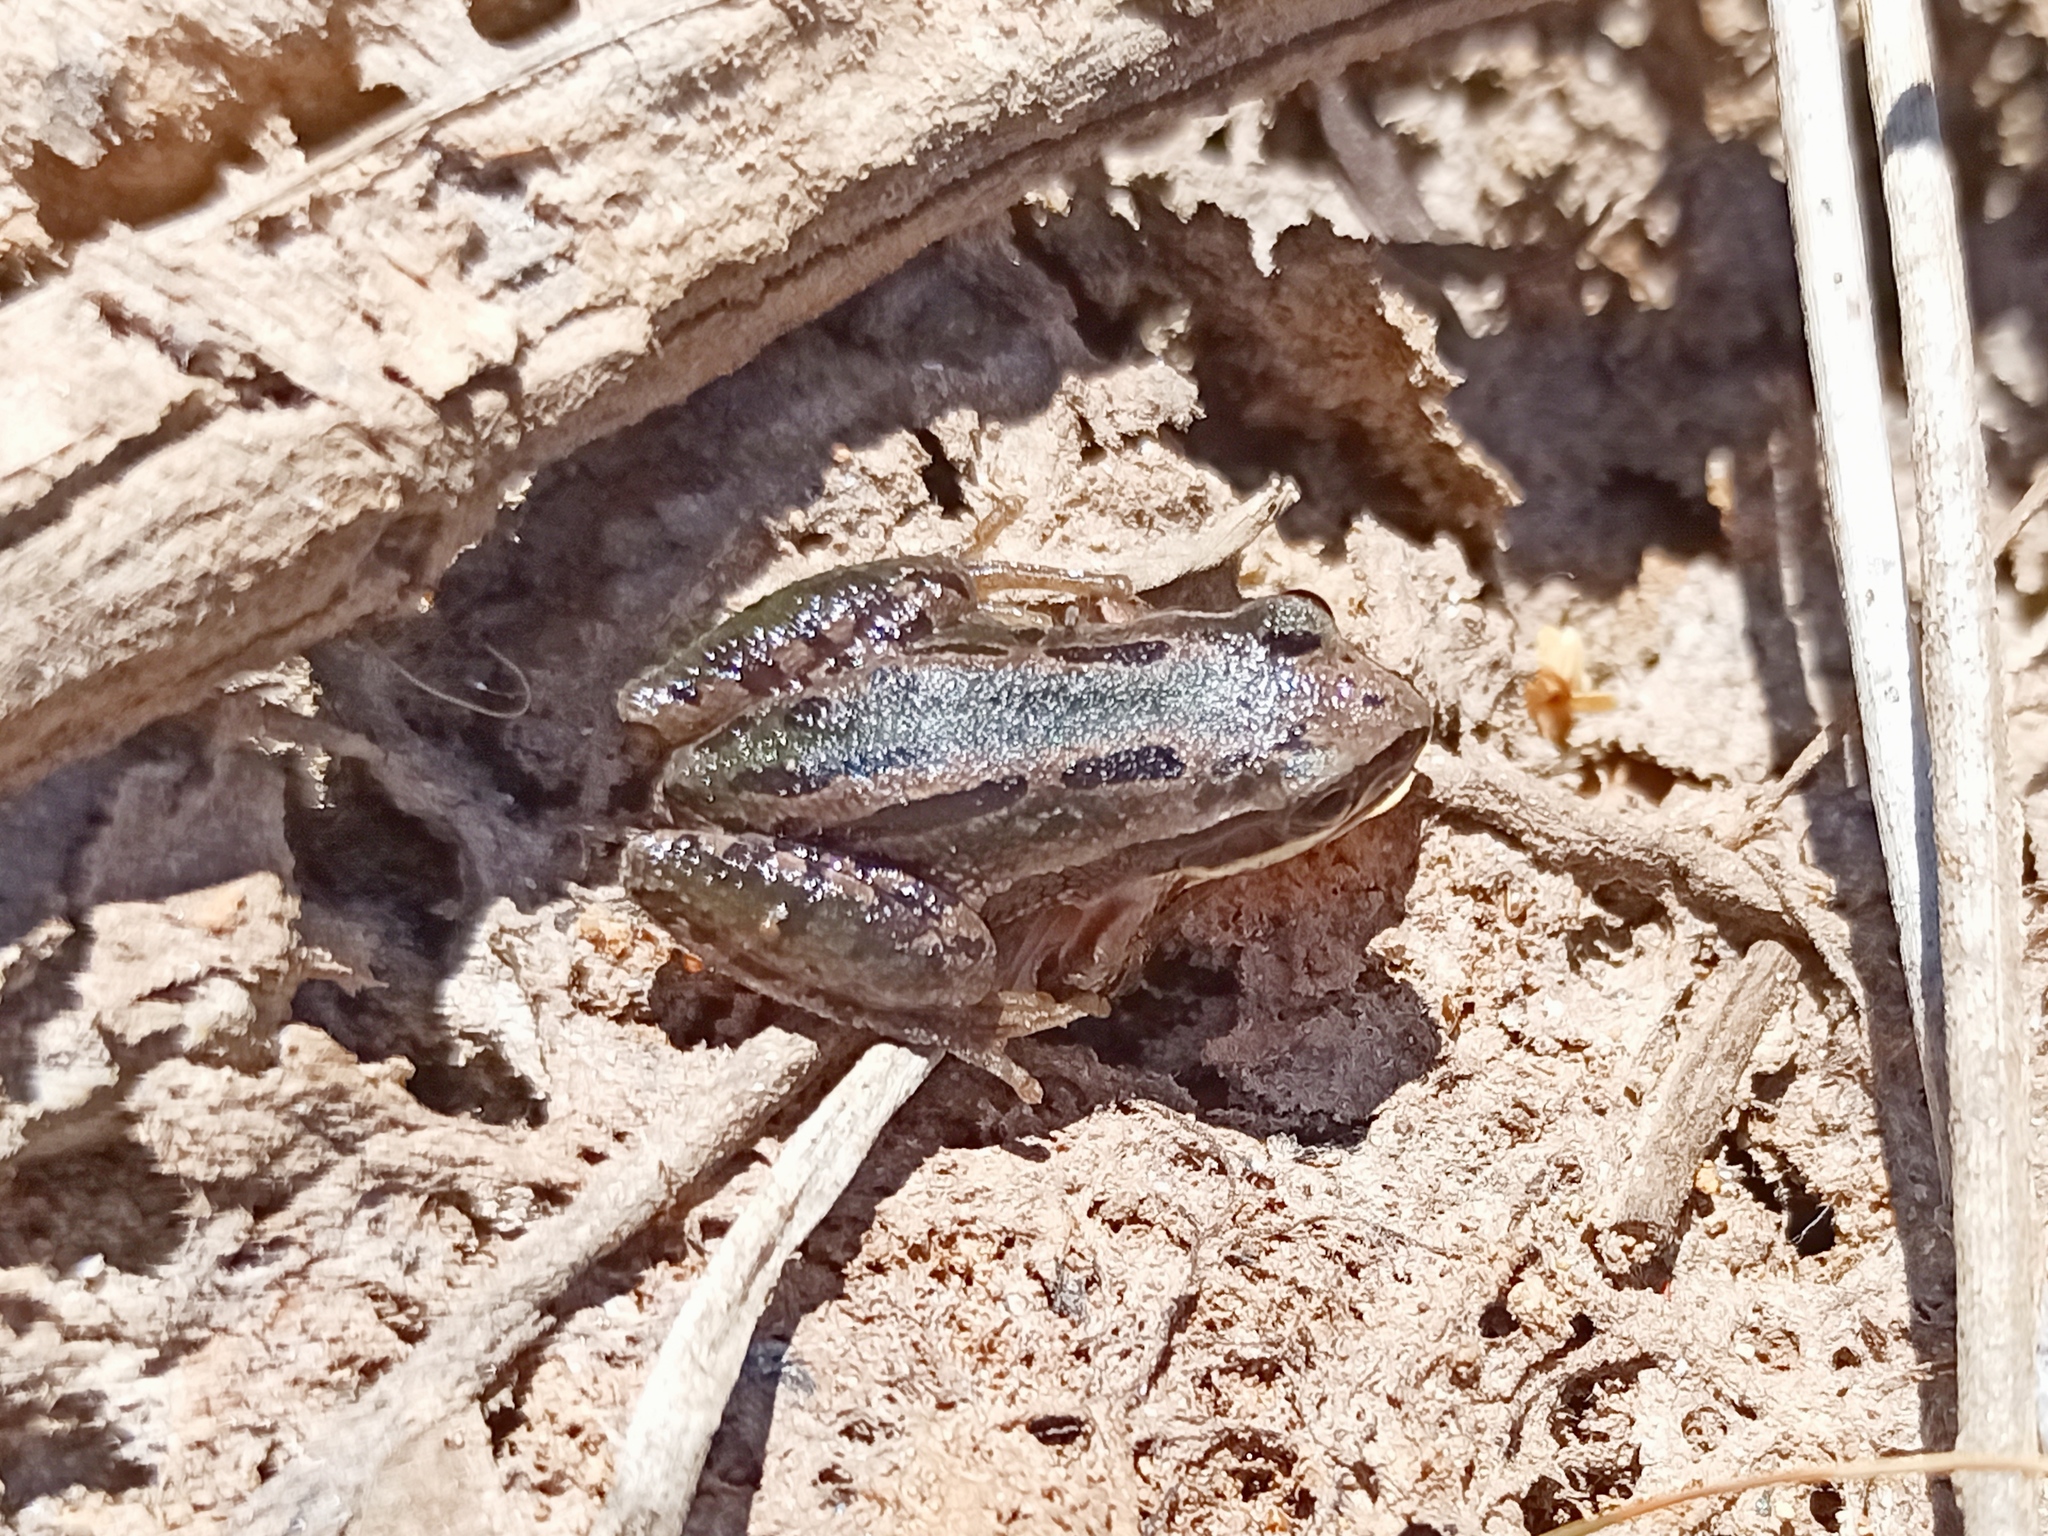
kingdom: Animalia
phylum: Chordata
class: Amphibia
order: Anura
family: Hylidae
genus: Dryophytes
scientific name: Dryophytes eximius
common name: Mountain treefrog
